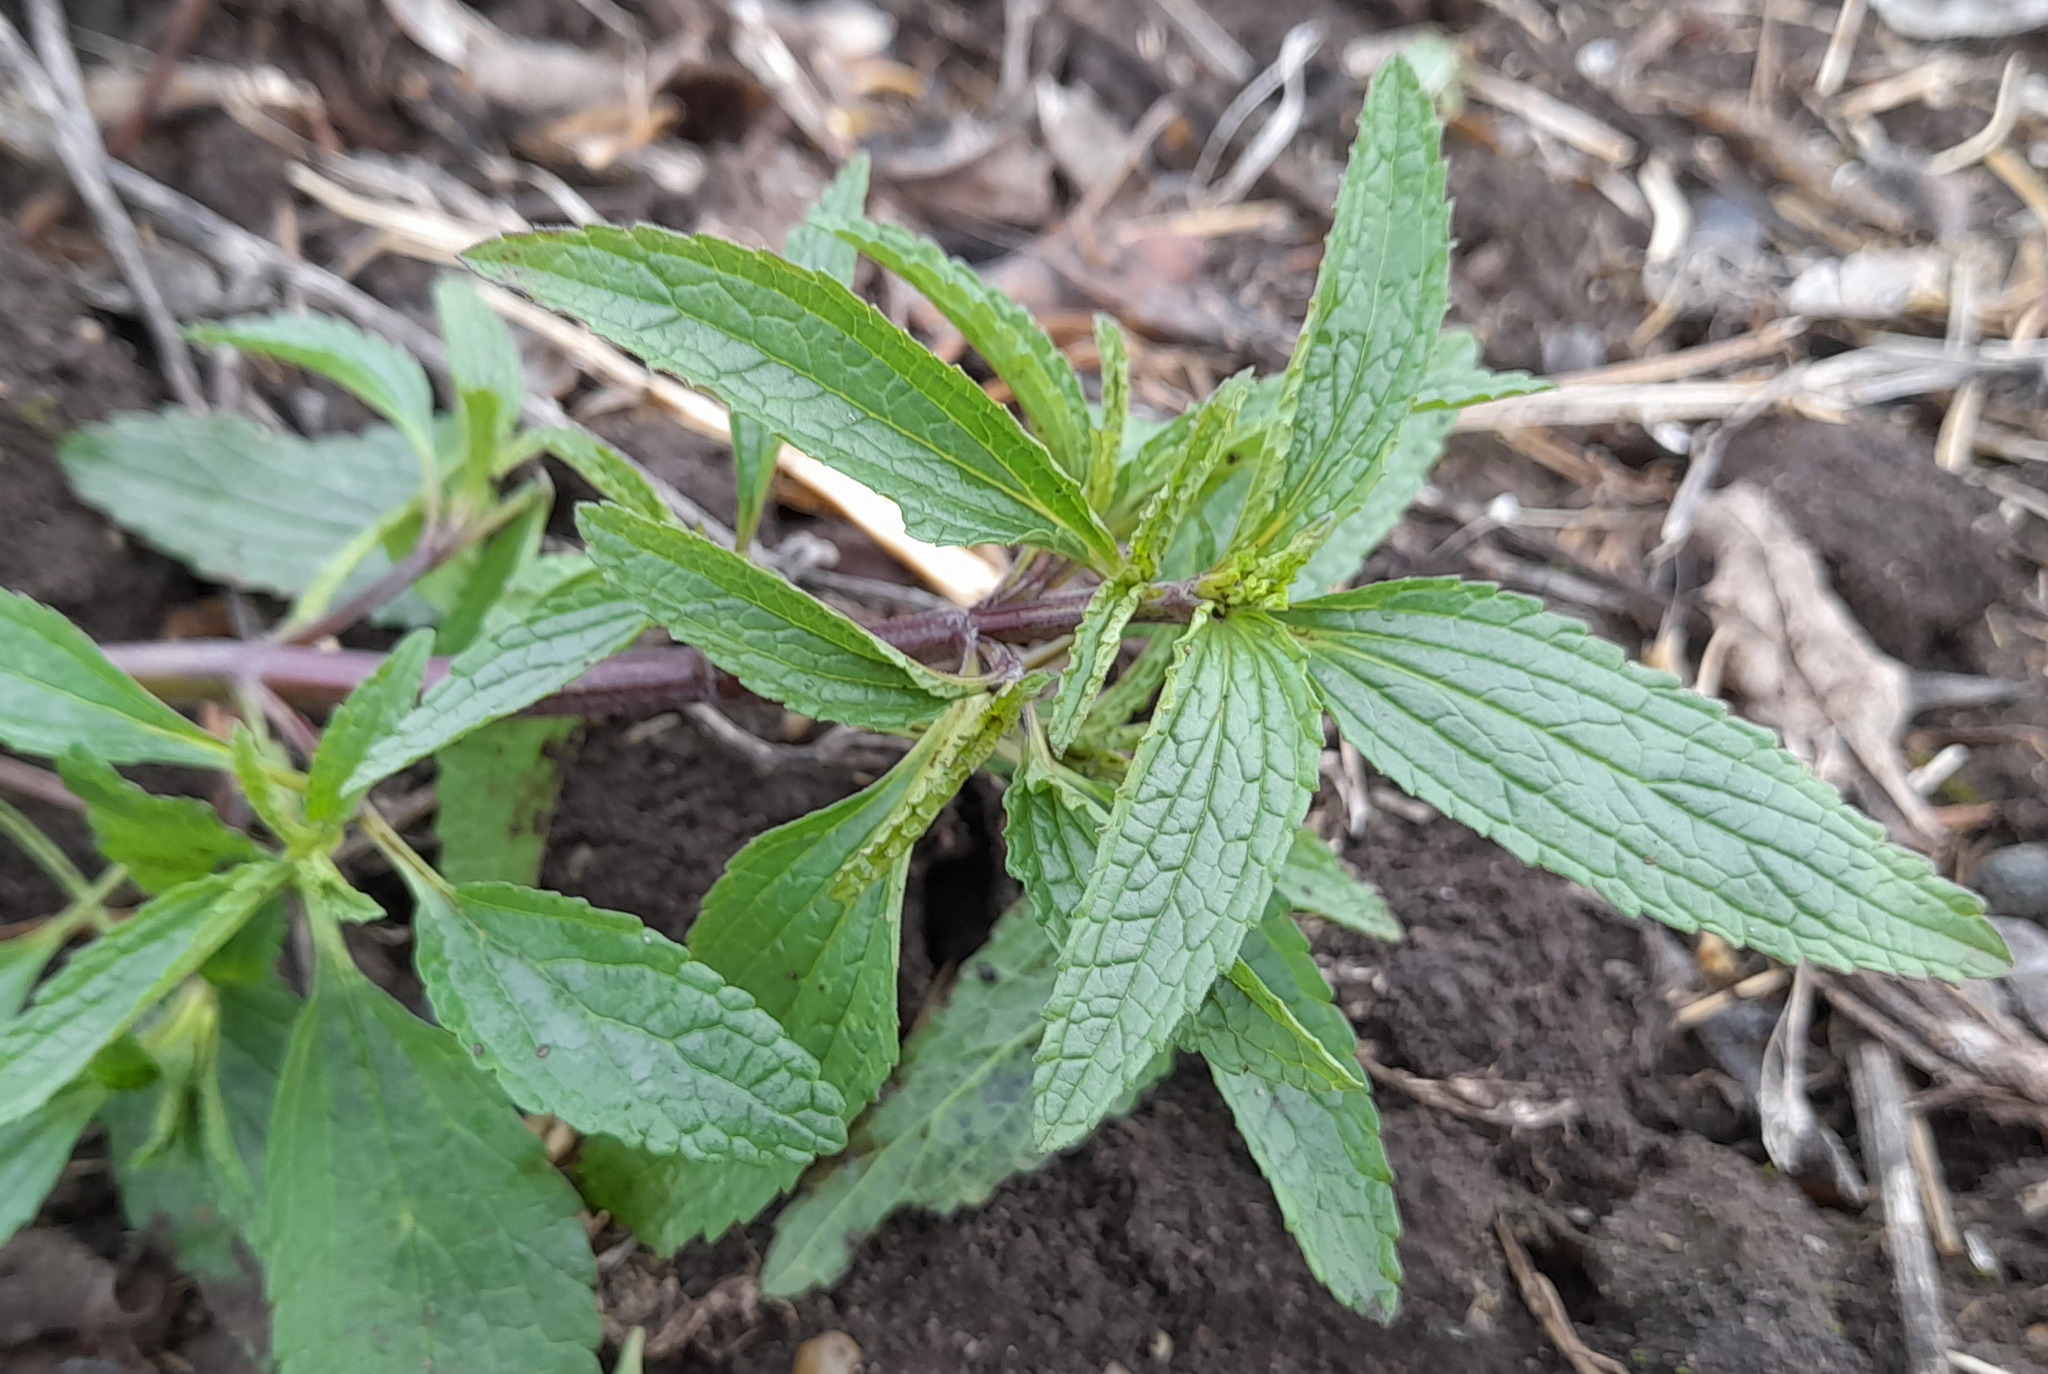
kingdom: Plantae
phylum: Tracheophyta
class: Magnoliopsida
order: Lamiales
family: Lamiaceae
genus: Stachys
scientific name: Stachys annua
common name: Annual yellow-woundwort
